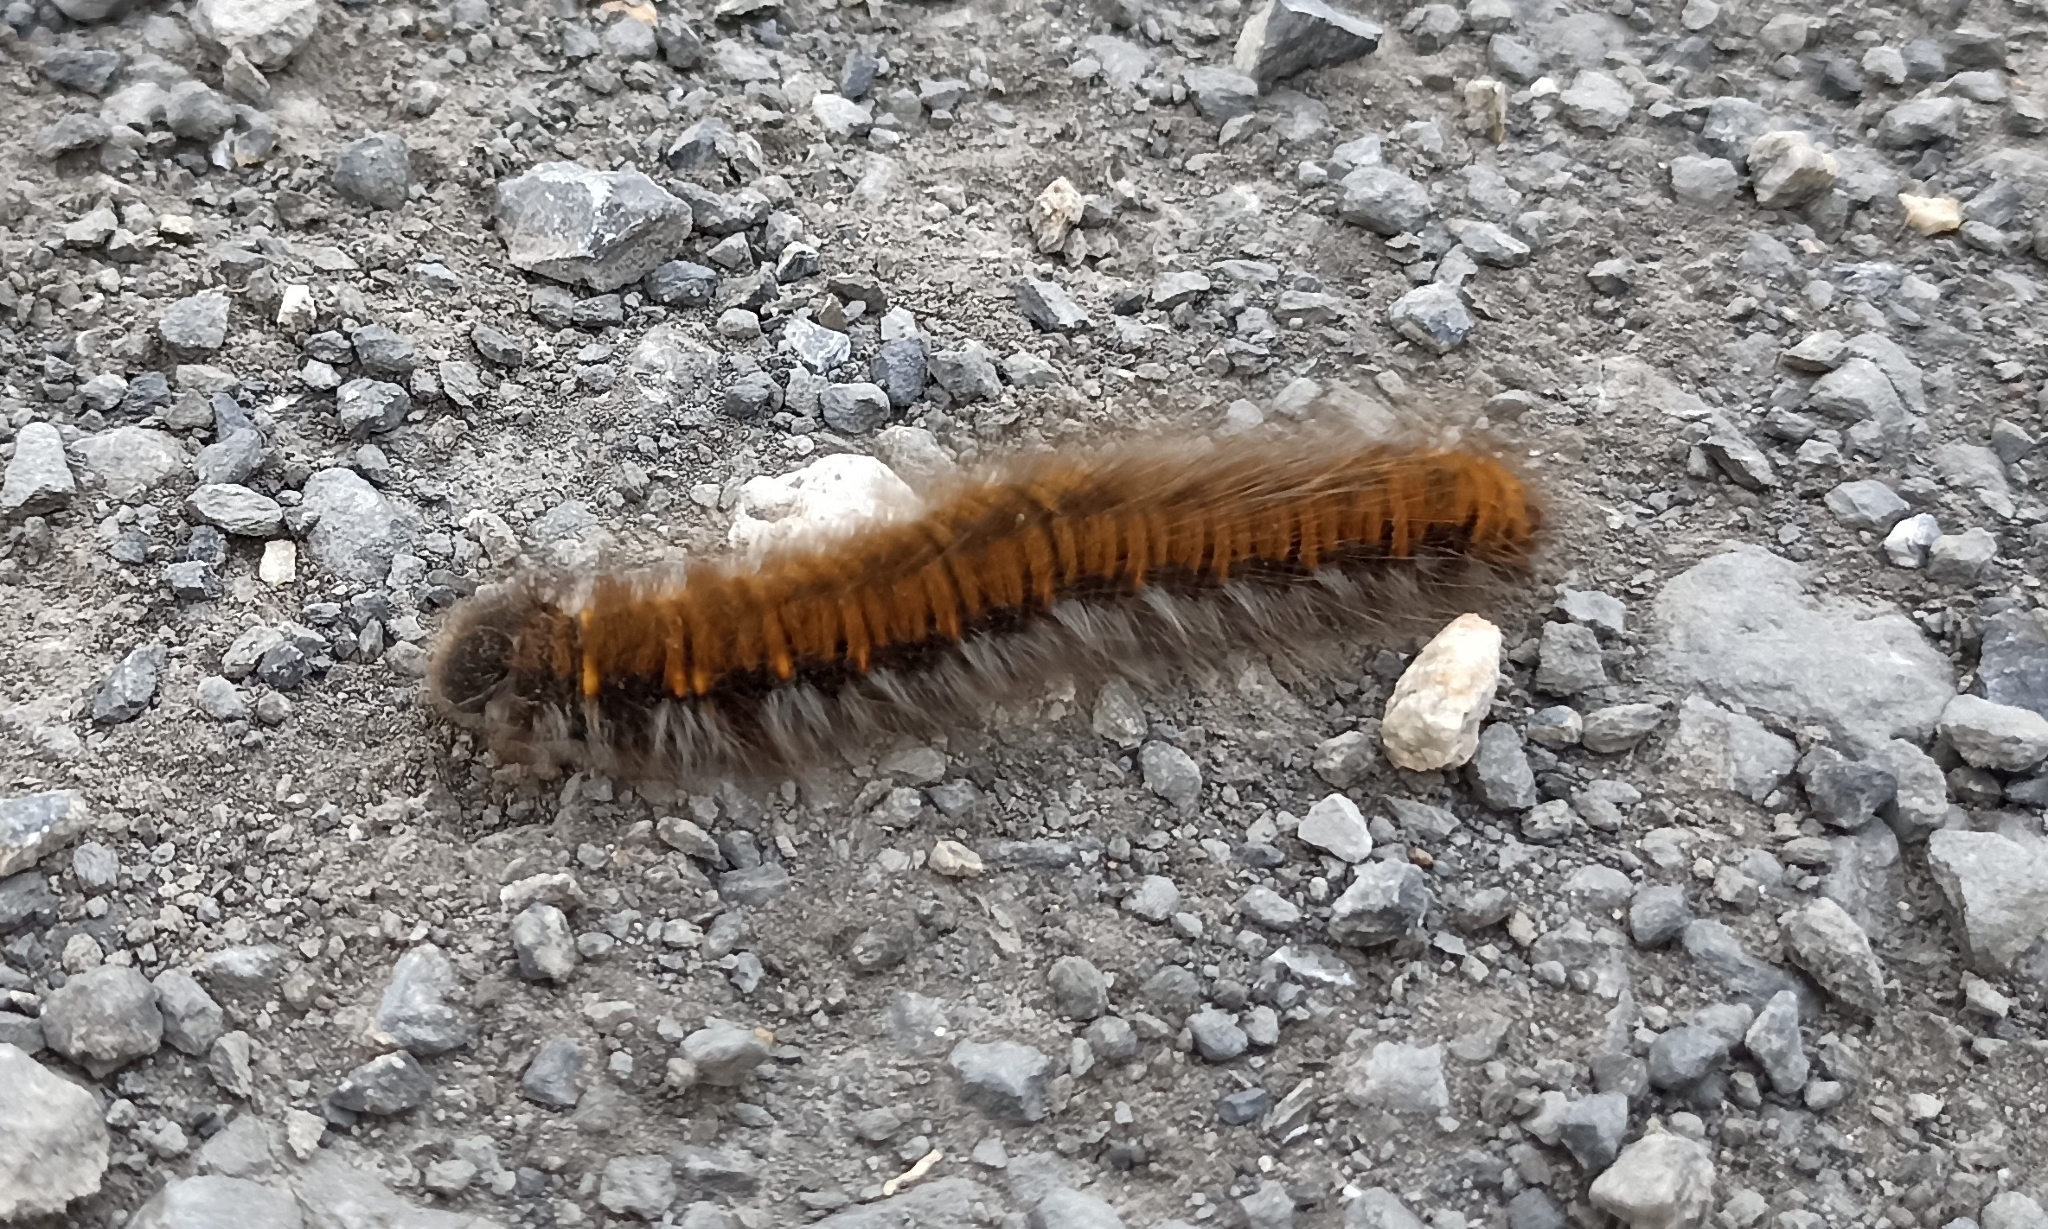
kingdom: Animalia
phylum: Arthropoda
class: Insecta
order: Lepidoptera
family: Lasiocampidae
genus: Macrothylacia
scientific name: Macrothylacia rubi
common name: Fox moth
